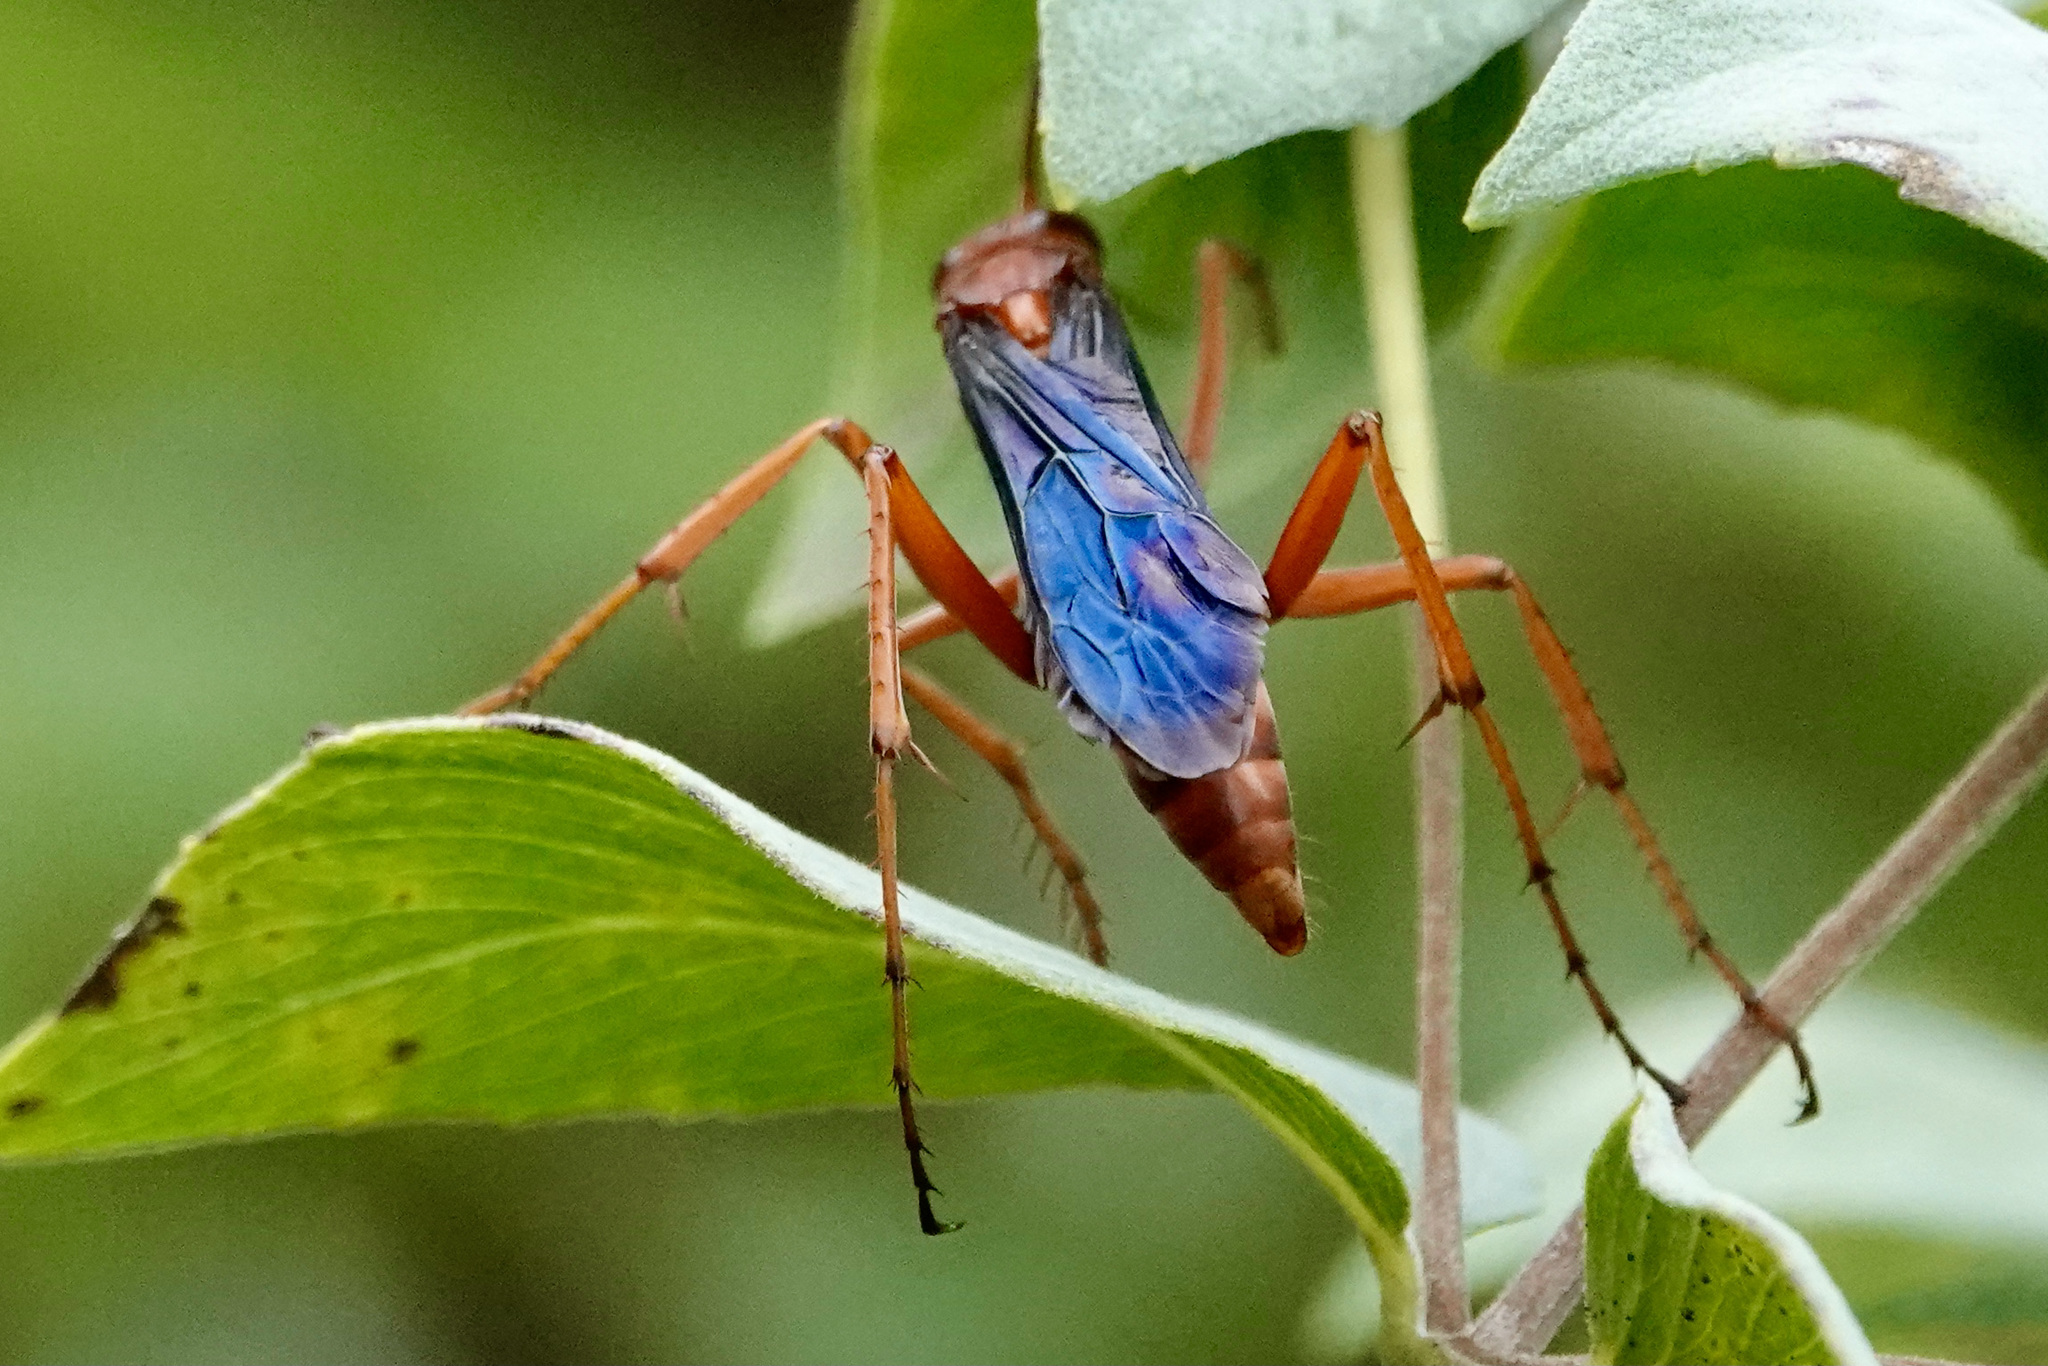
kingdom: Animalia
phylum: Arthropoda
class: Insecta
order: Hymenoptera
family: Pompilidae
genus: Tachypompilus
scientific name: Tachypompilus ferrugineus
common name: Rusty spider wasp
